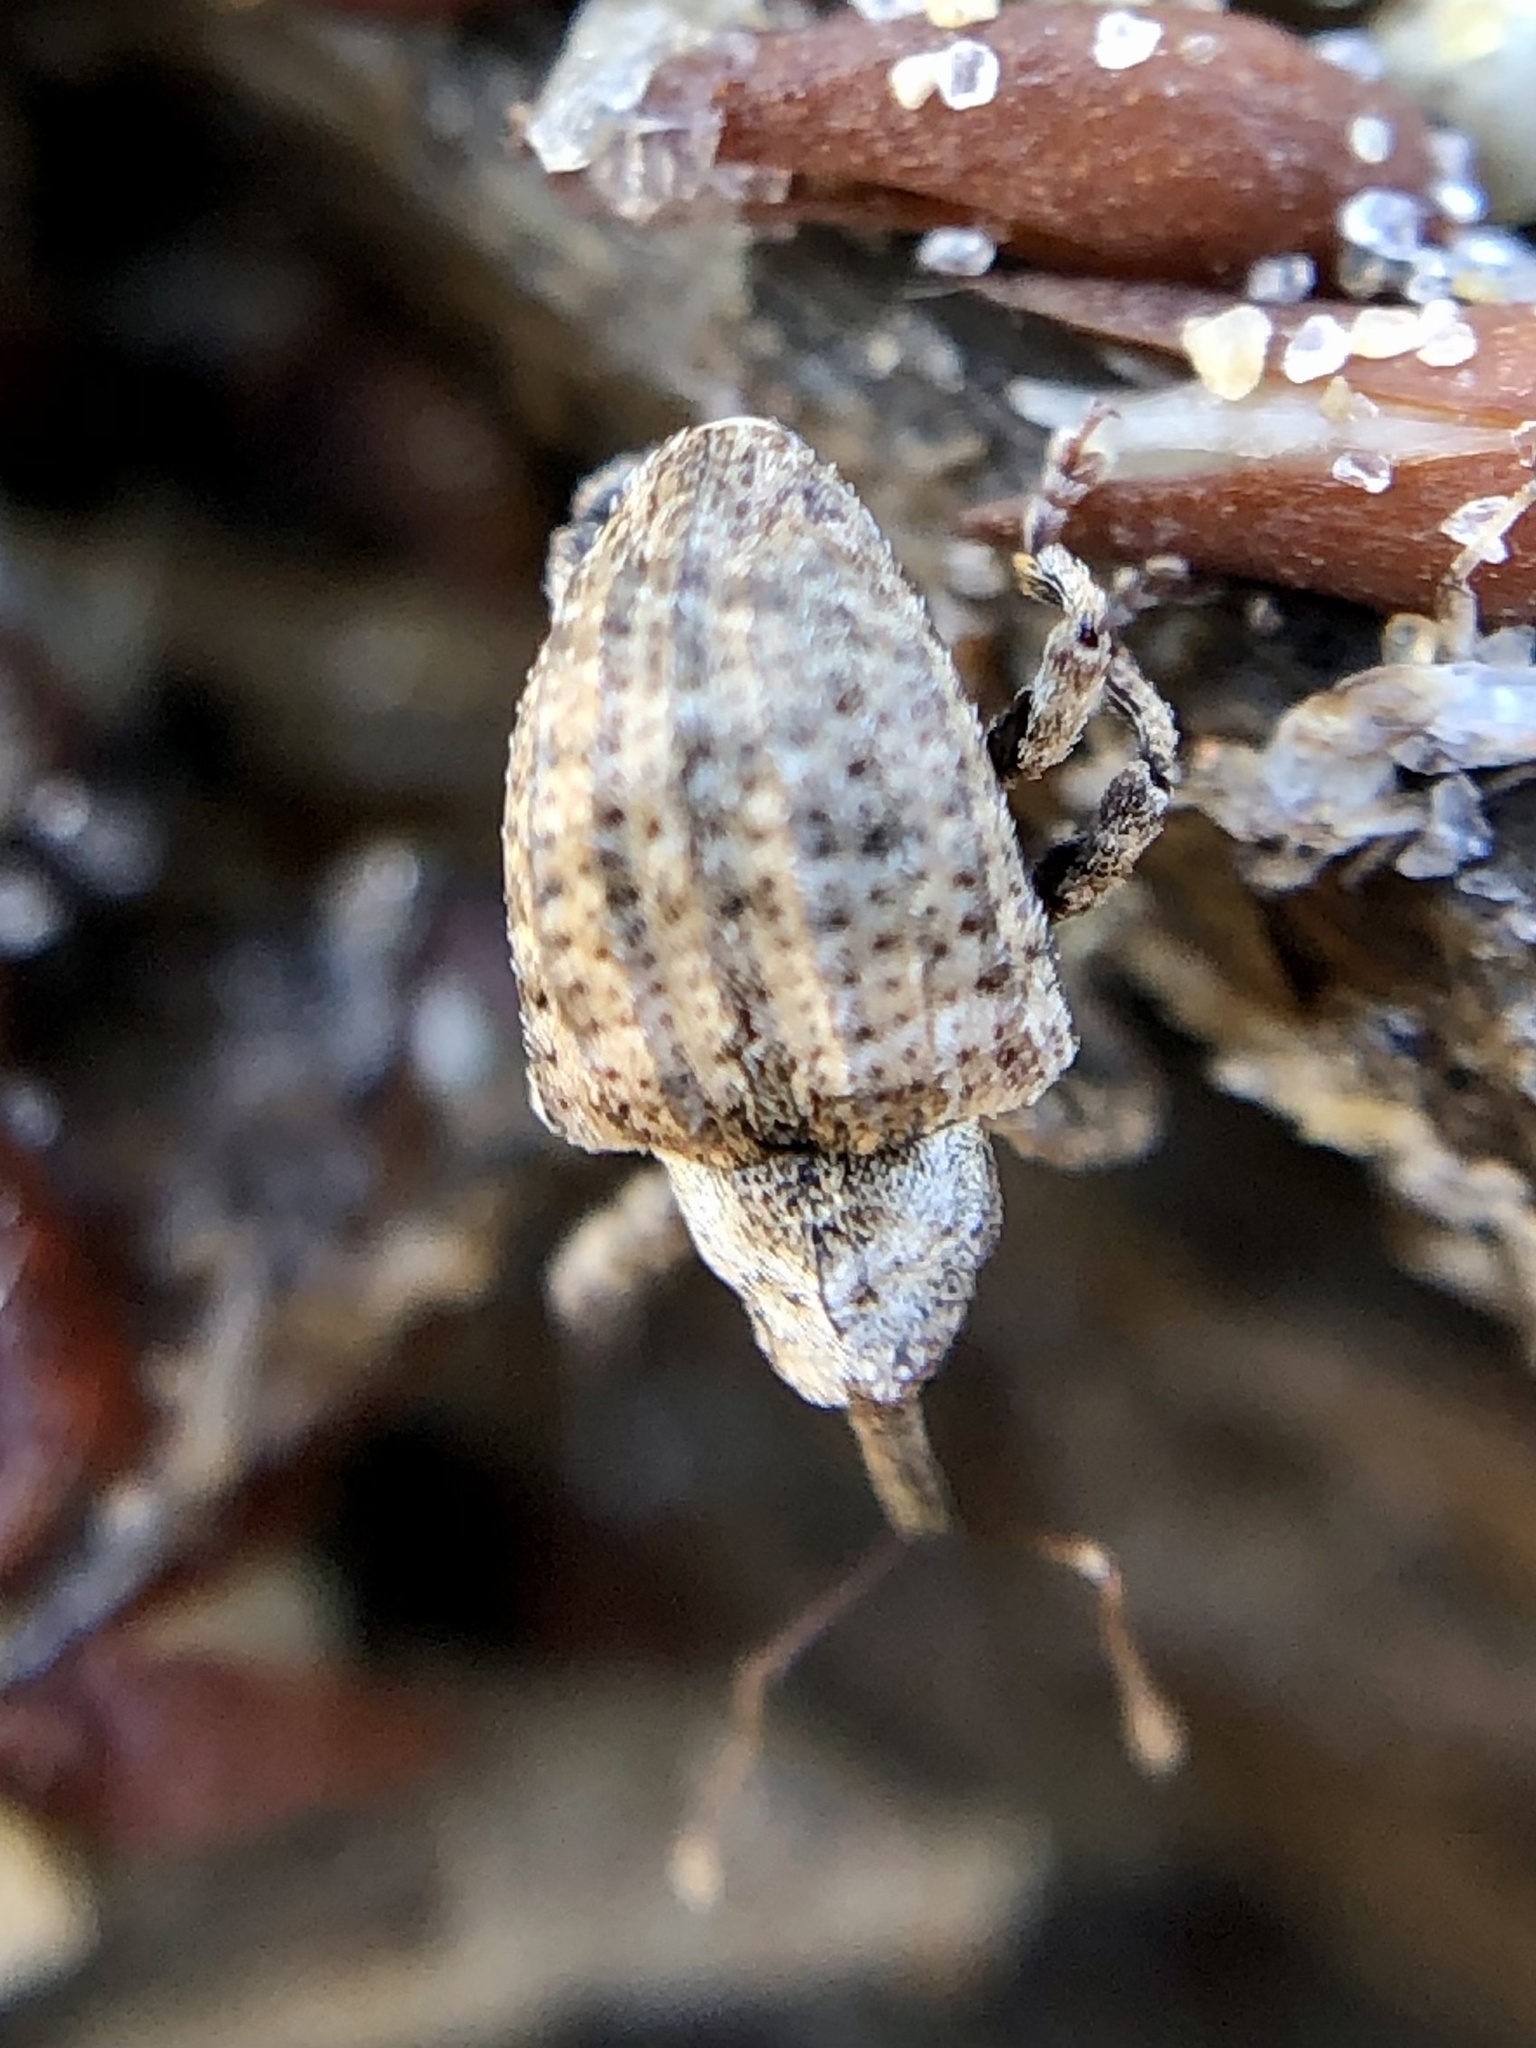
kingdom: Animalia
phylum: Arthropoda
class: Insecta
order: Coleoptera
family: Curculionidae
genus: Conotrachelus
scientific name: Conotrachelus crataegi
